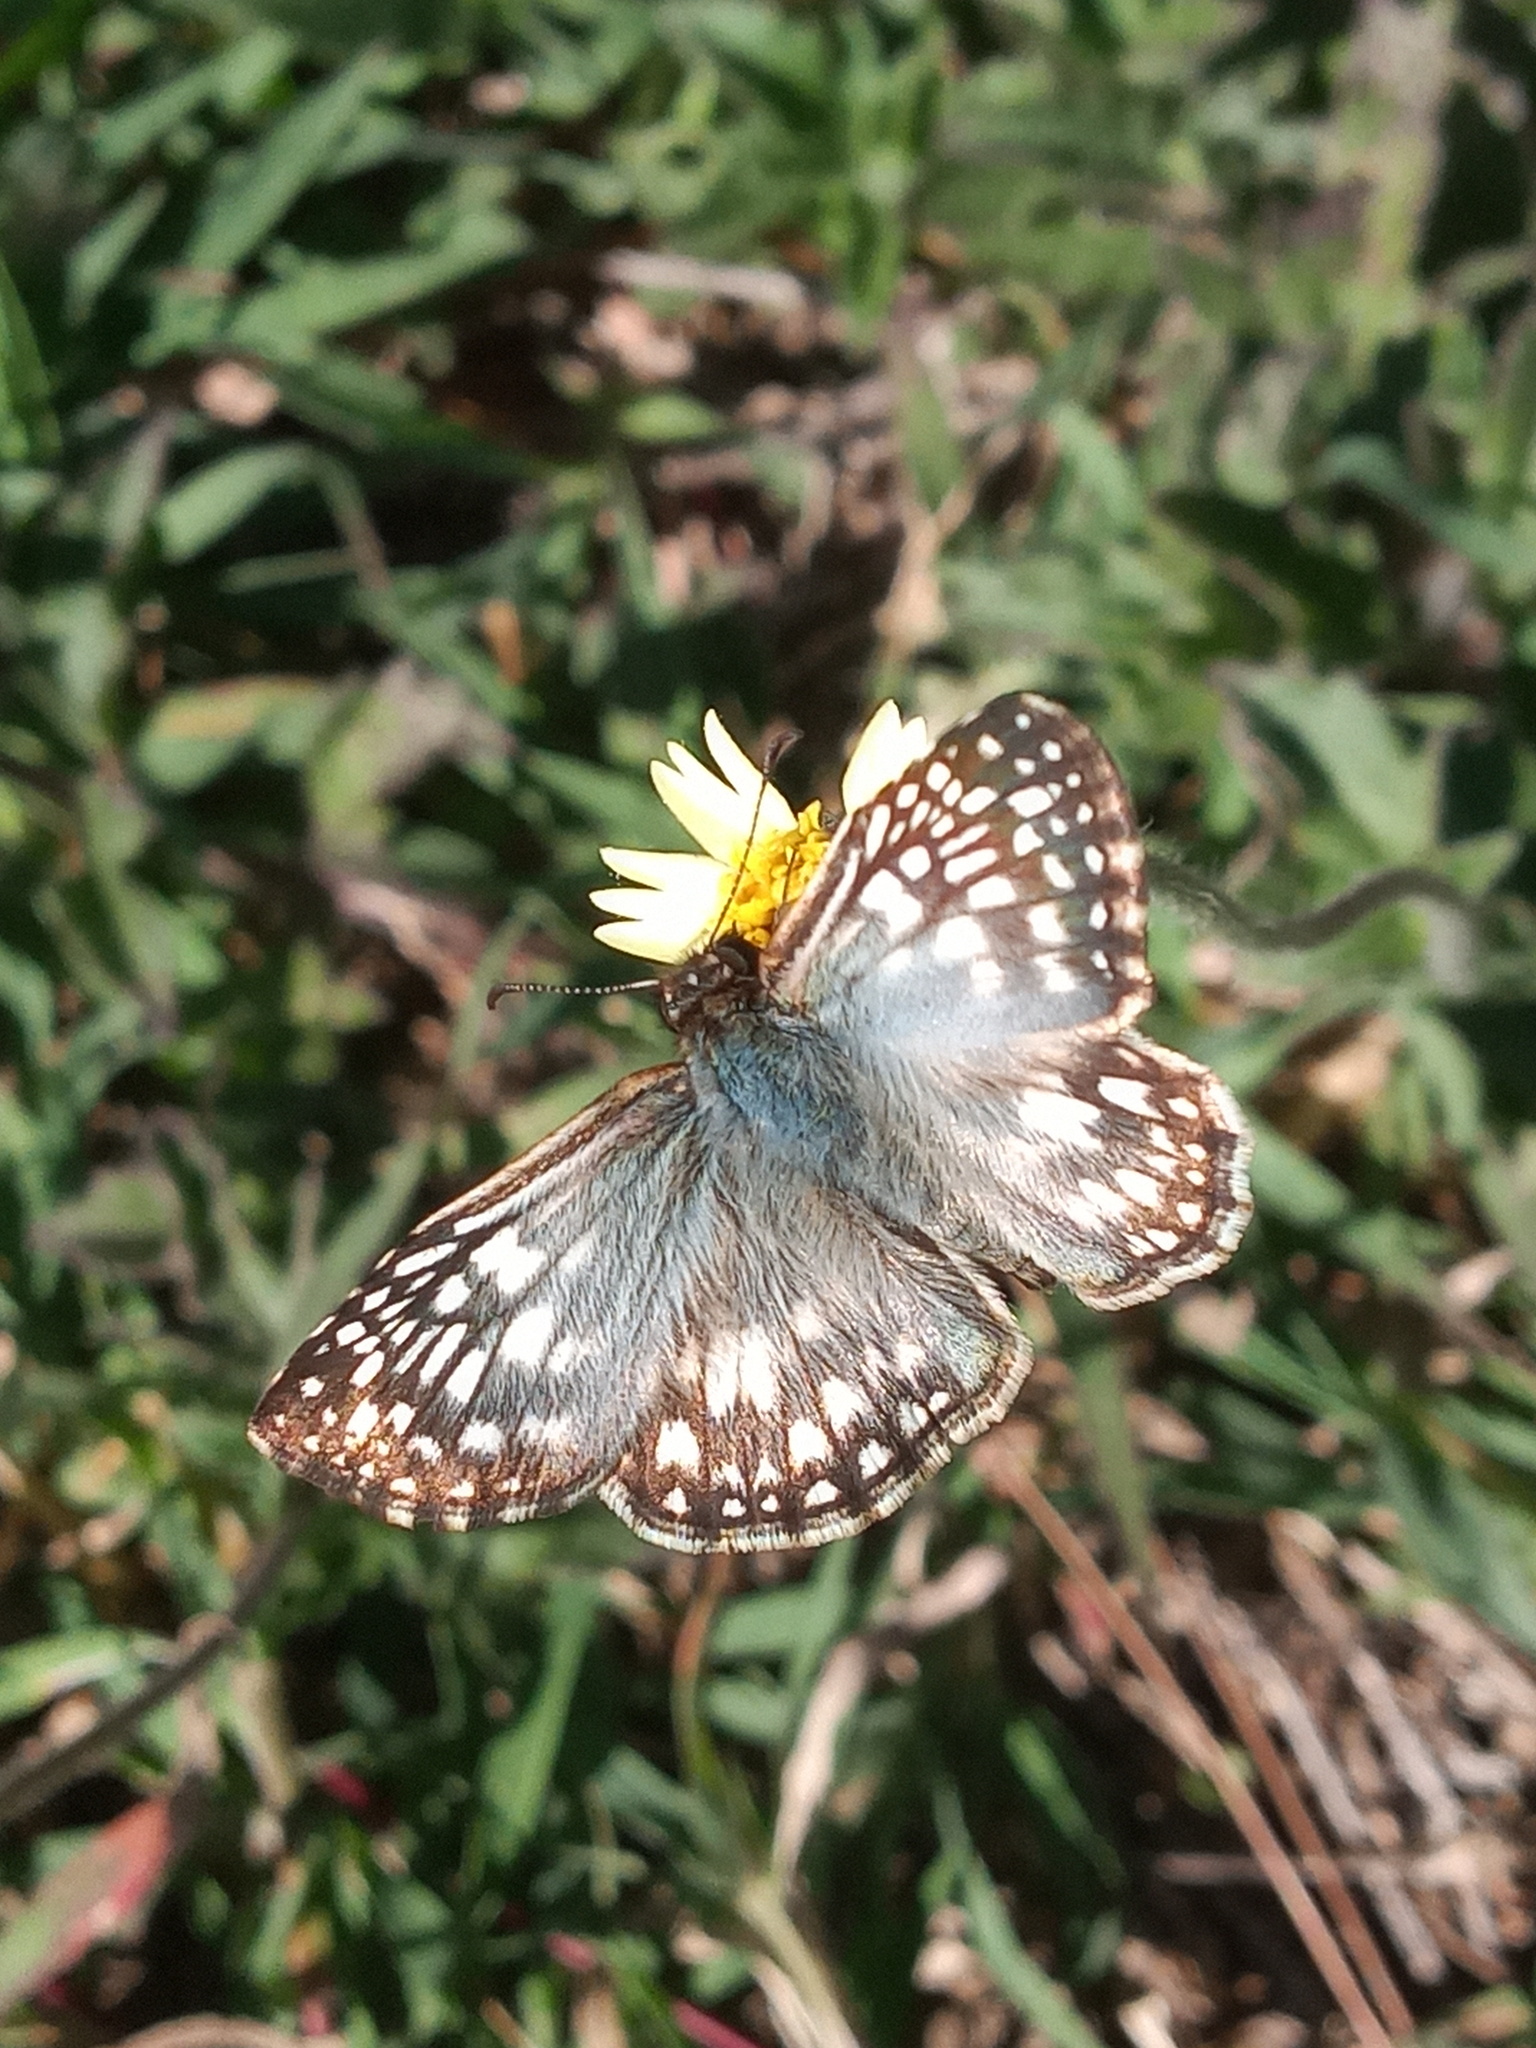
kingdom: Animalia
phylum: Arthropoda
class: Insecta
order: Lepidoptera
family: Hesperiidae
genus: Pyrgus
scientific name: Pyrgus oileus
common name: Tropical checkered-skipper
